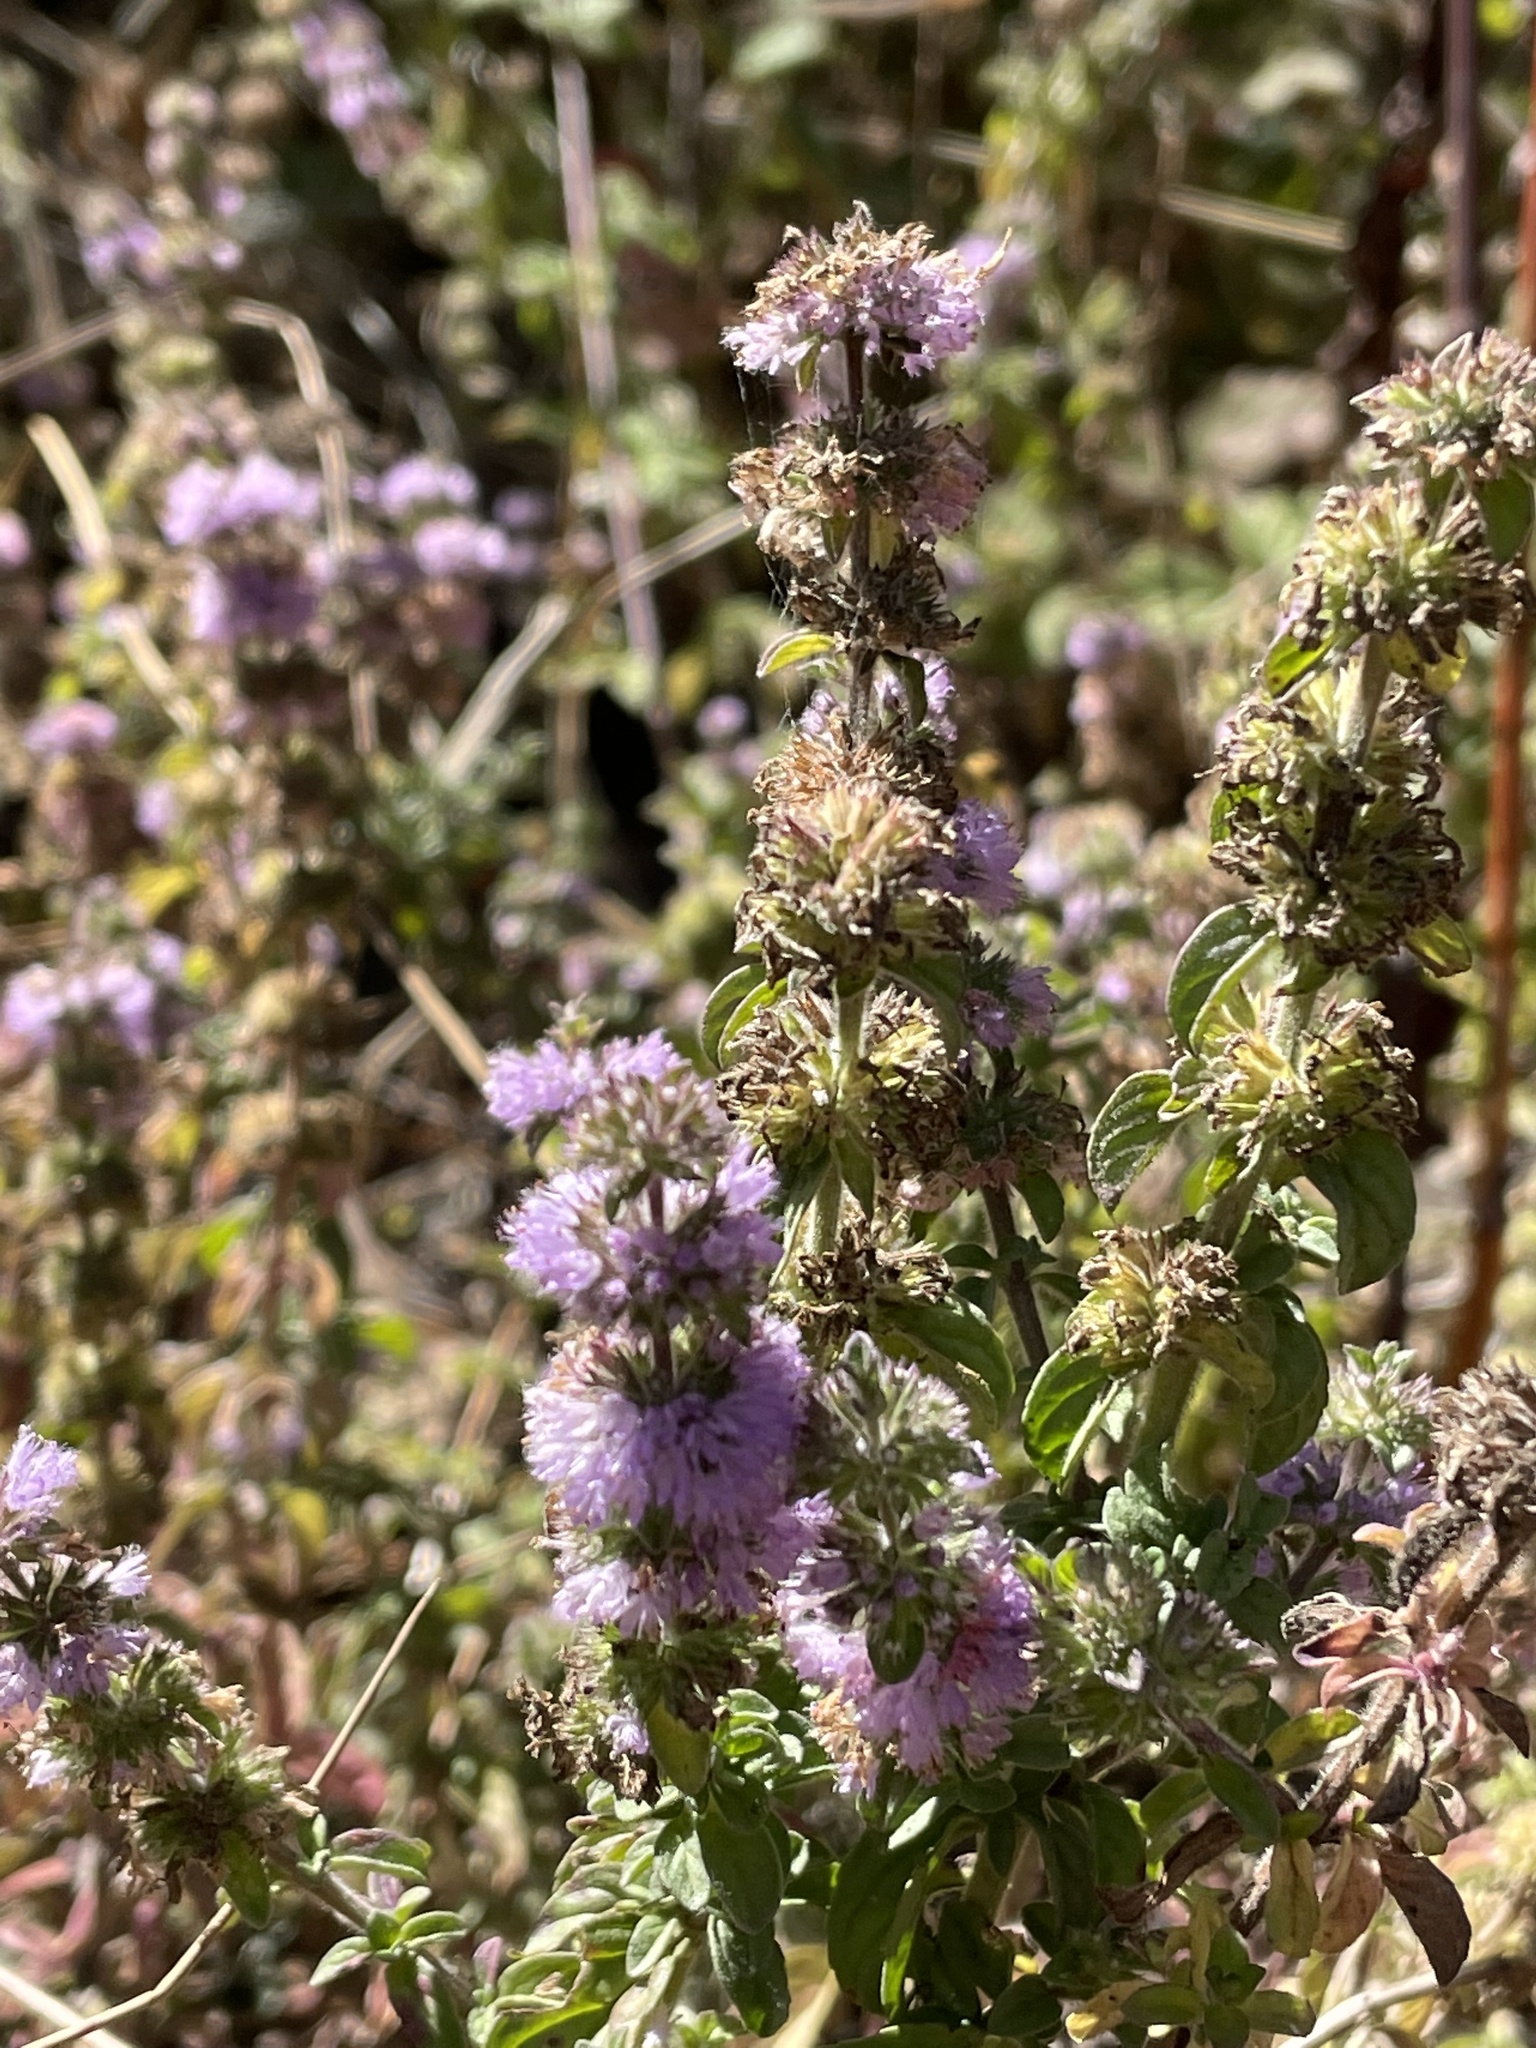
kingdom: Plantae
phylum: Tracheophyta
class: Magnoliopsida
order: Lamiales
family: Lamiaceae
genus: Mentha
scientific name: Mentha pulegium
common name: Pennyroyal
